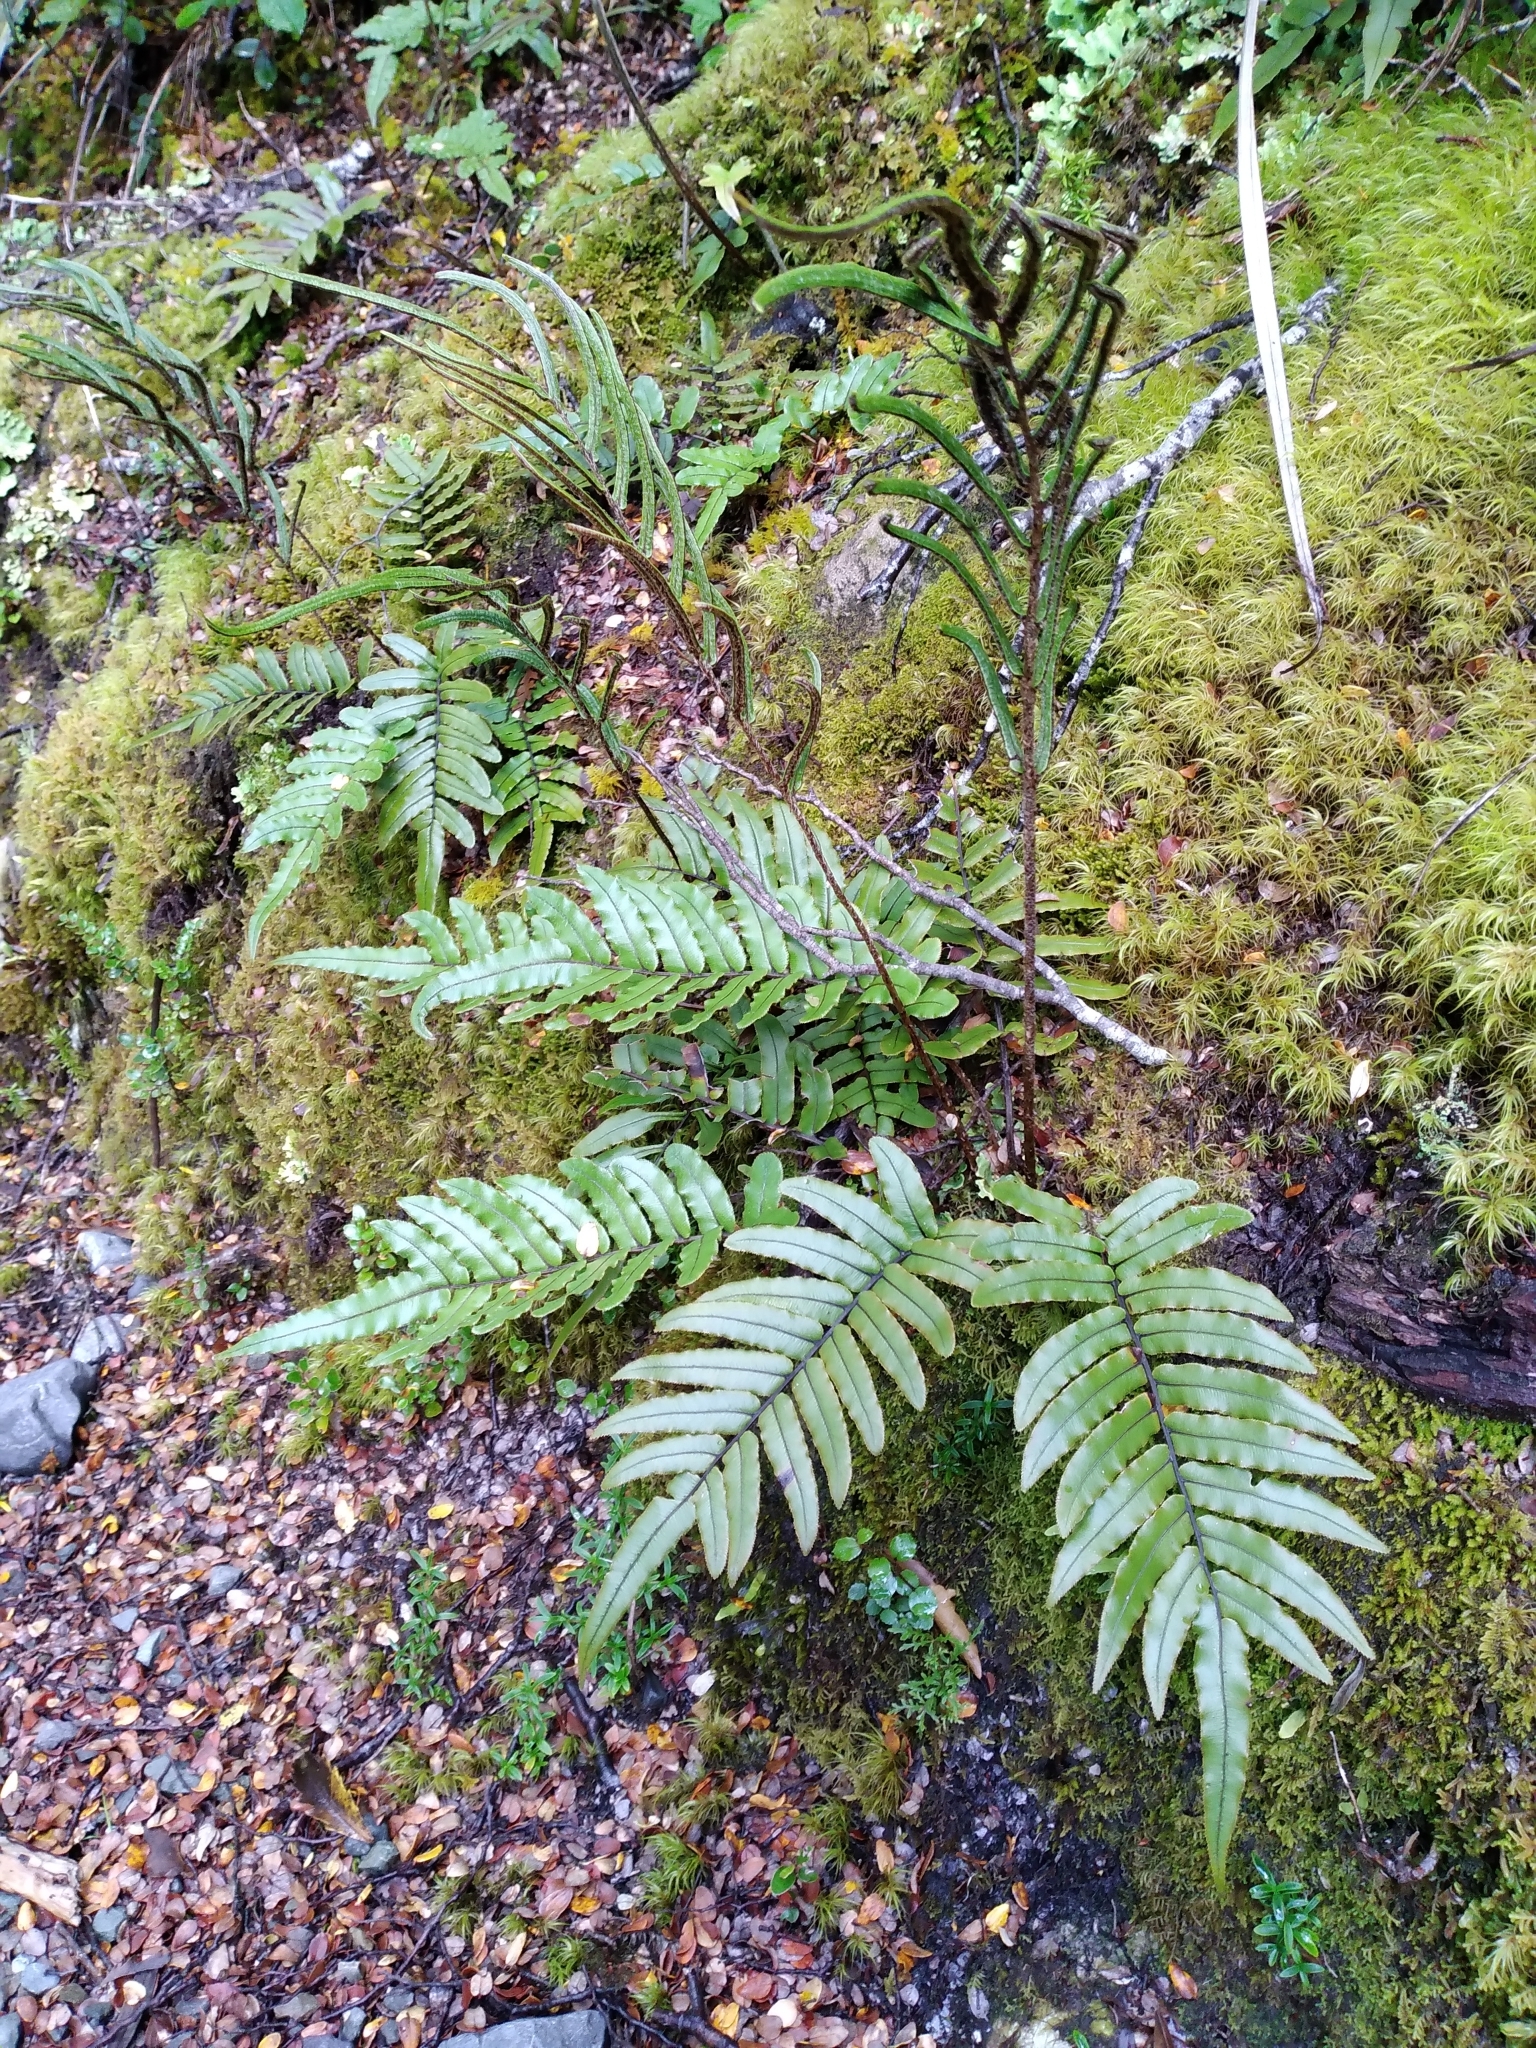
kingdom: Plantae
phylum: Tracheophyta
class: Polypodiopsida
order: Polypodiales
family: Blechnaceae
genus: Parablechnum
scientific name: Parablechnum procerum
